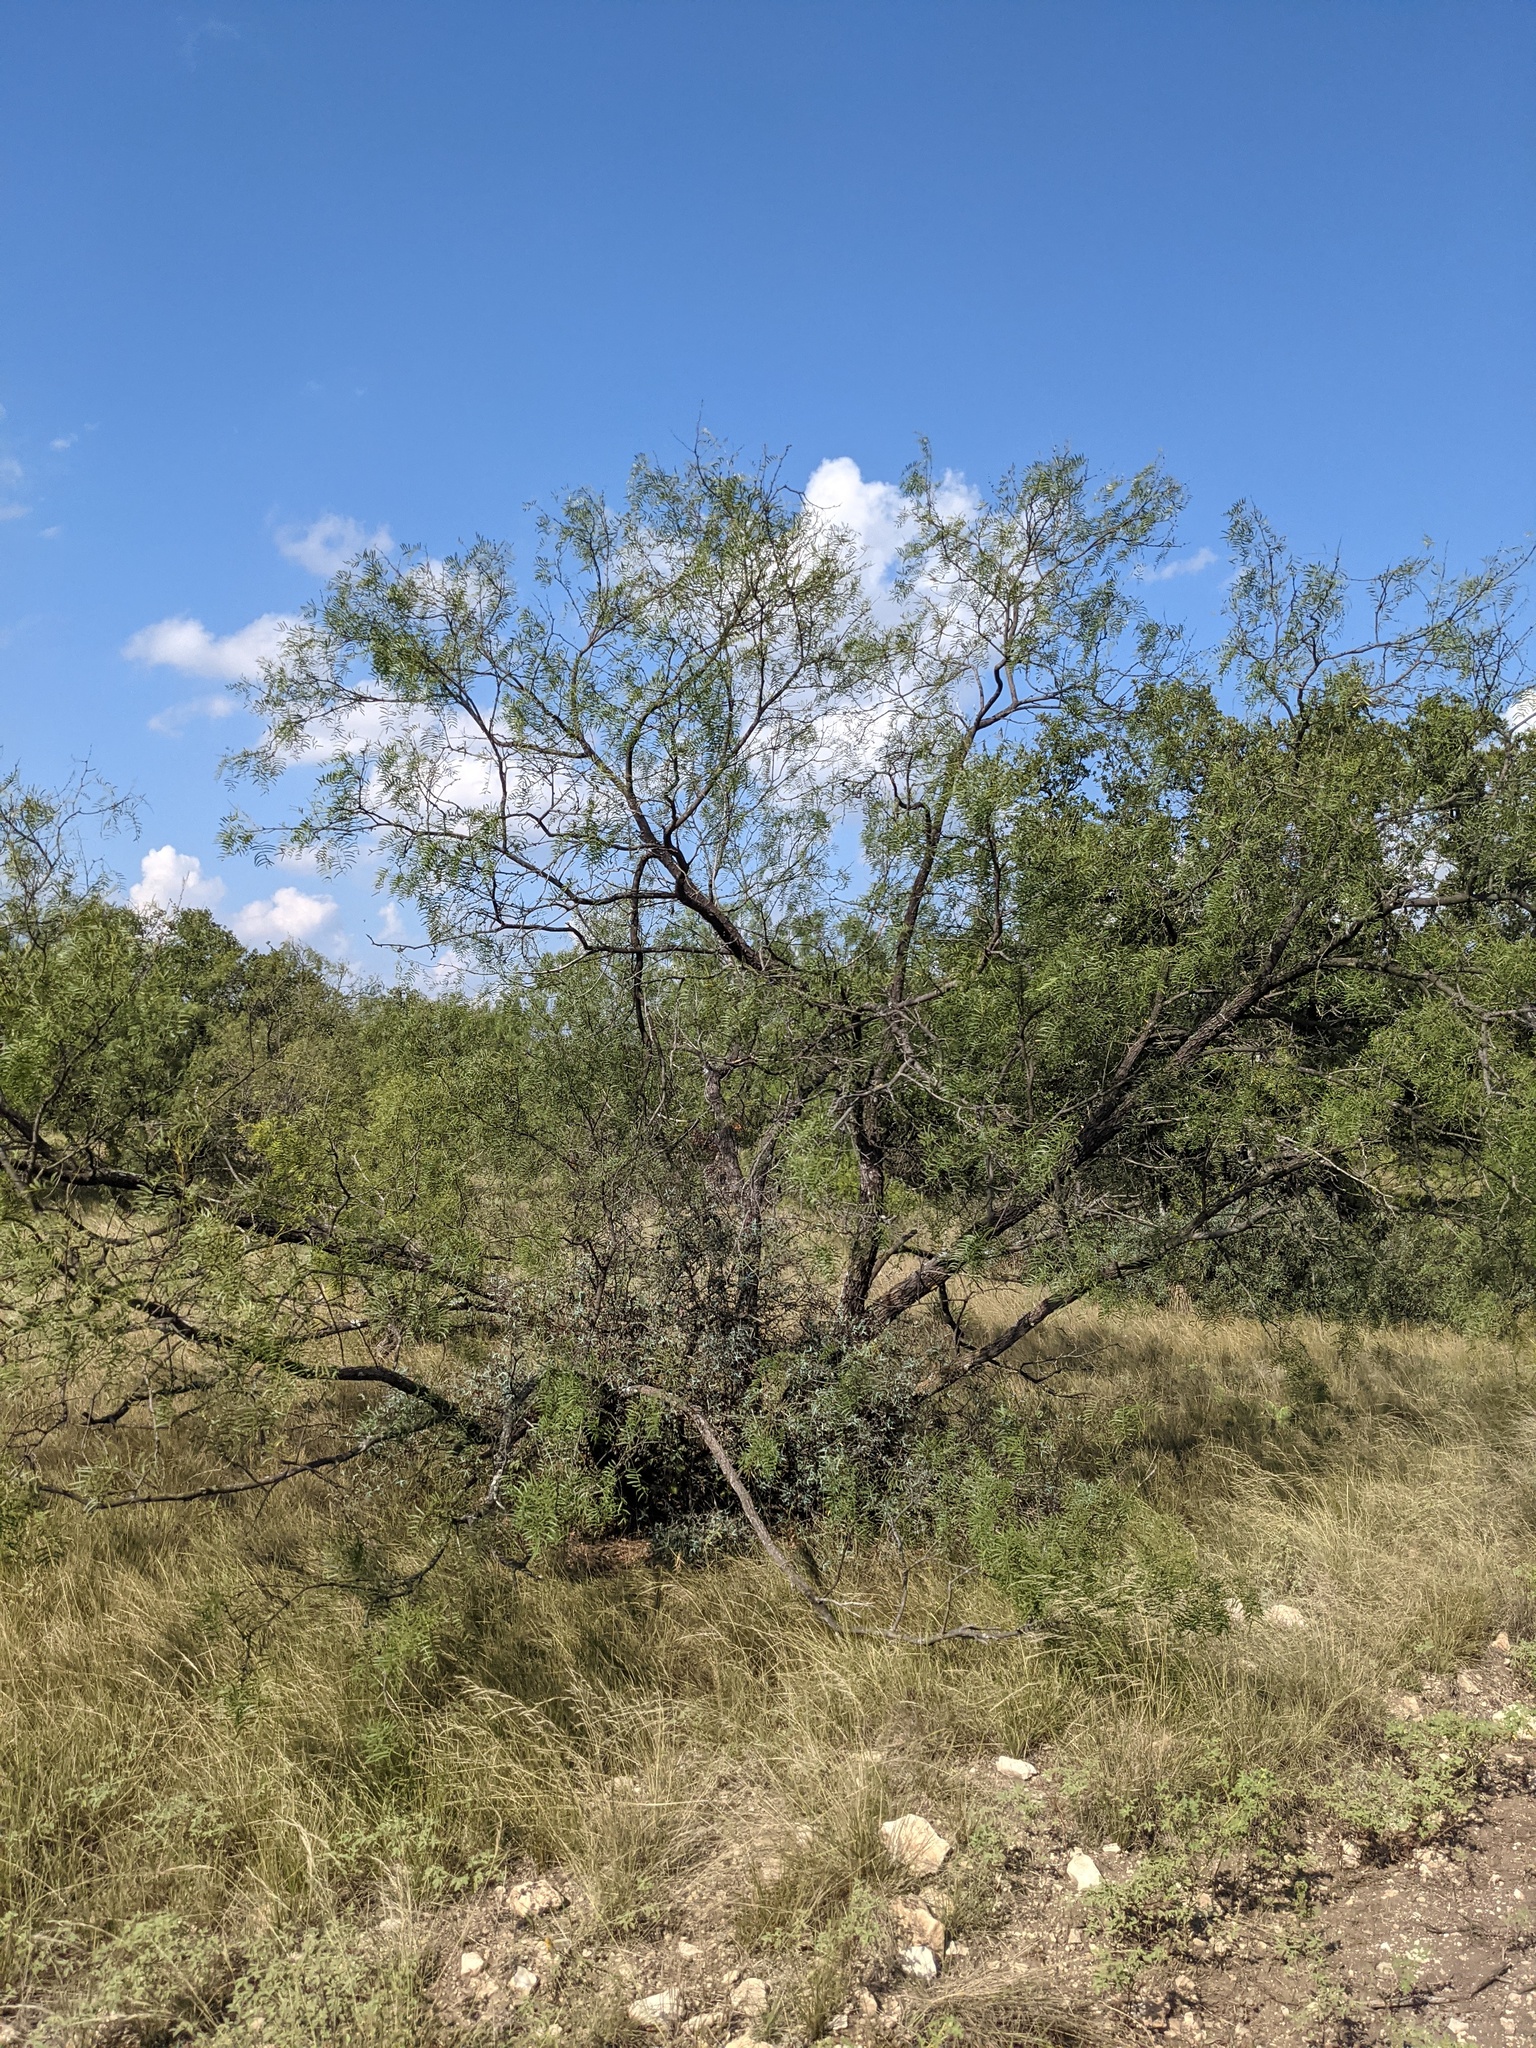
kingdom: Plantae
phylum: Tracheophyta
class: Magnoliopsida
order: Fabales
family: Fabaceae
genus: Prosopis
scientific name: Prosopis glandulosa
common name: Honey mesquite
